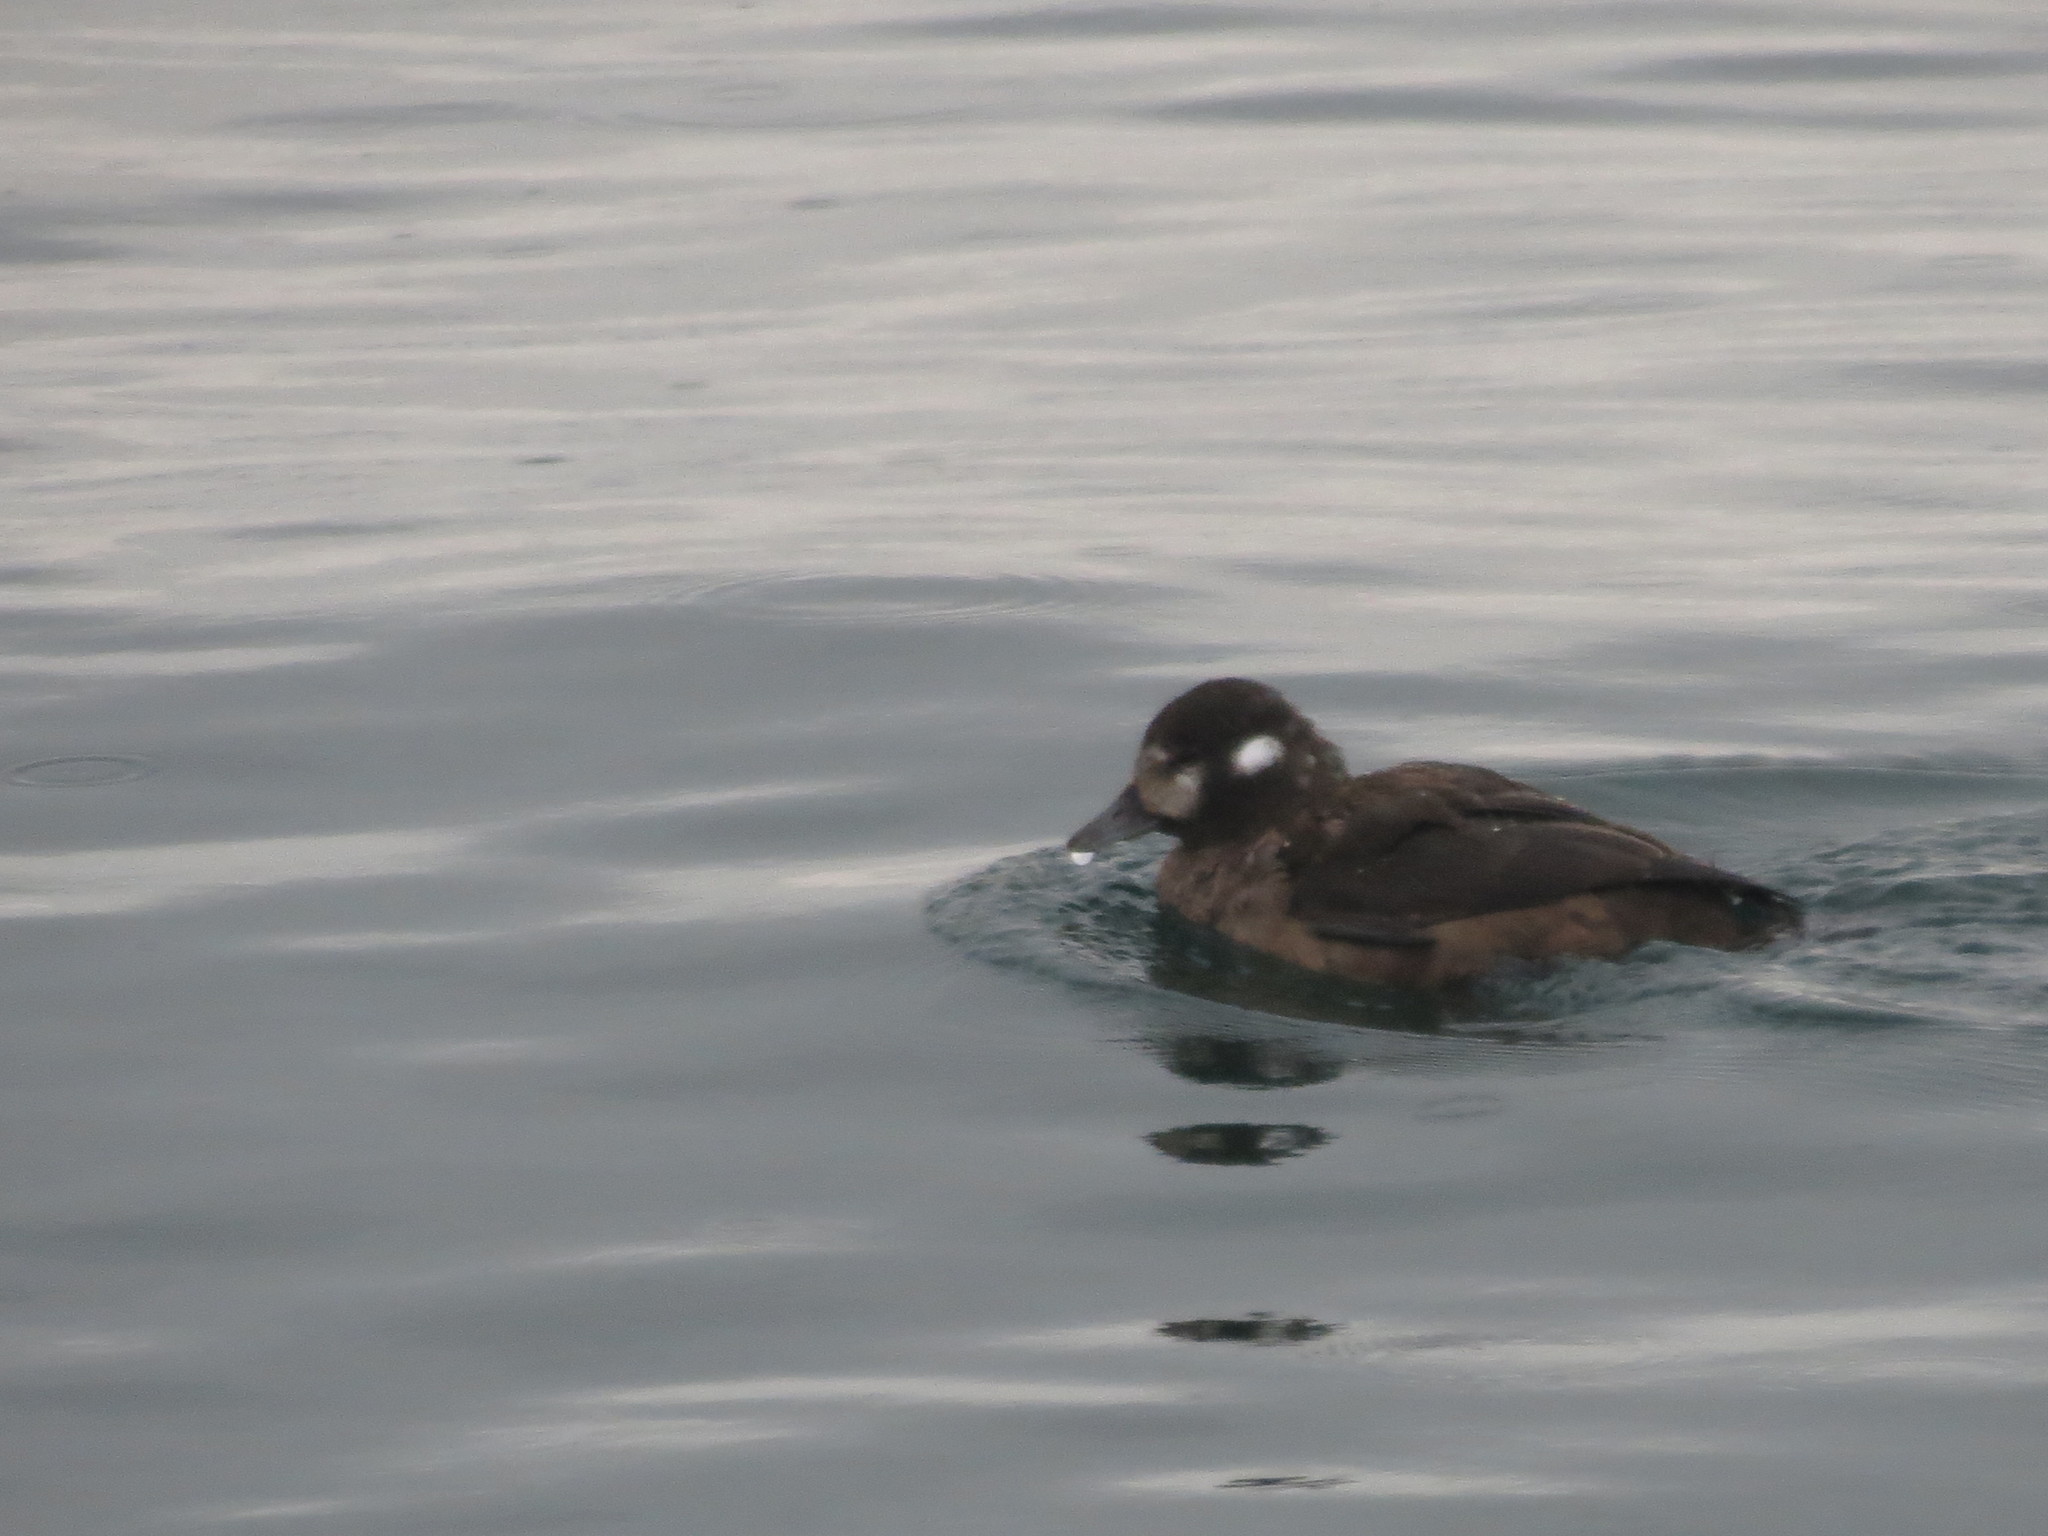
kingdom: Animalia
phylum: Chordata
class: Aves
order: Anseriformes
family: Anatidae
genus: Histrionicus
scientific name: Histrionicus histrionicus
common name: Harlequin duck
